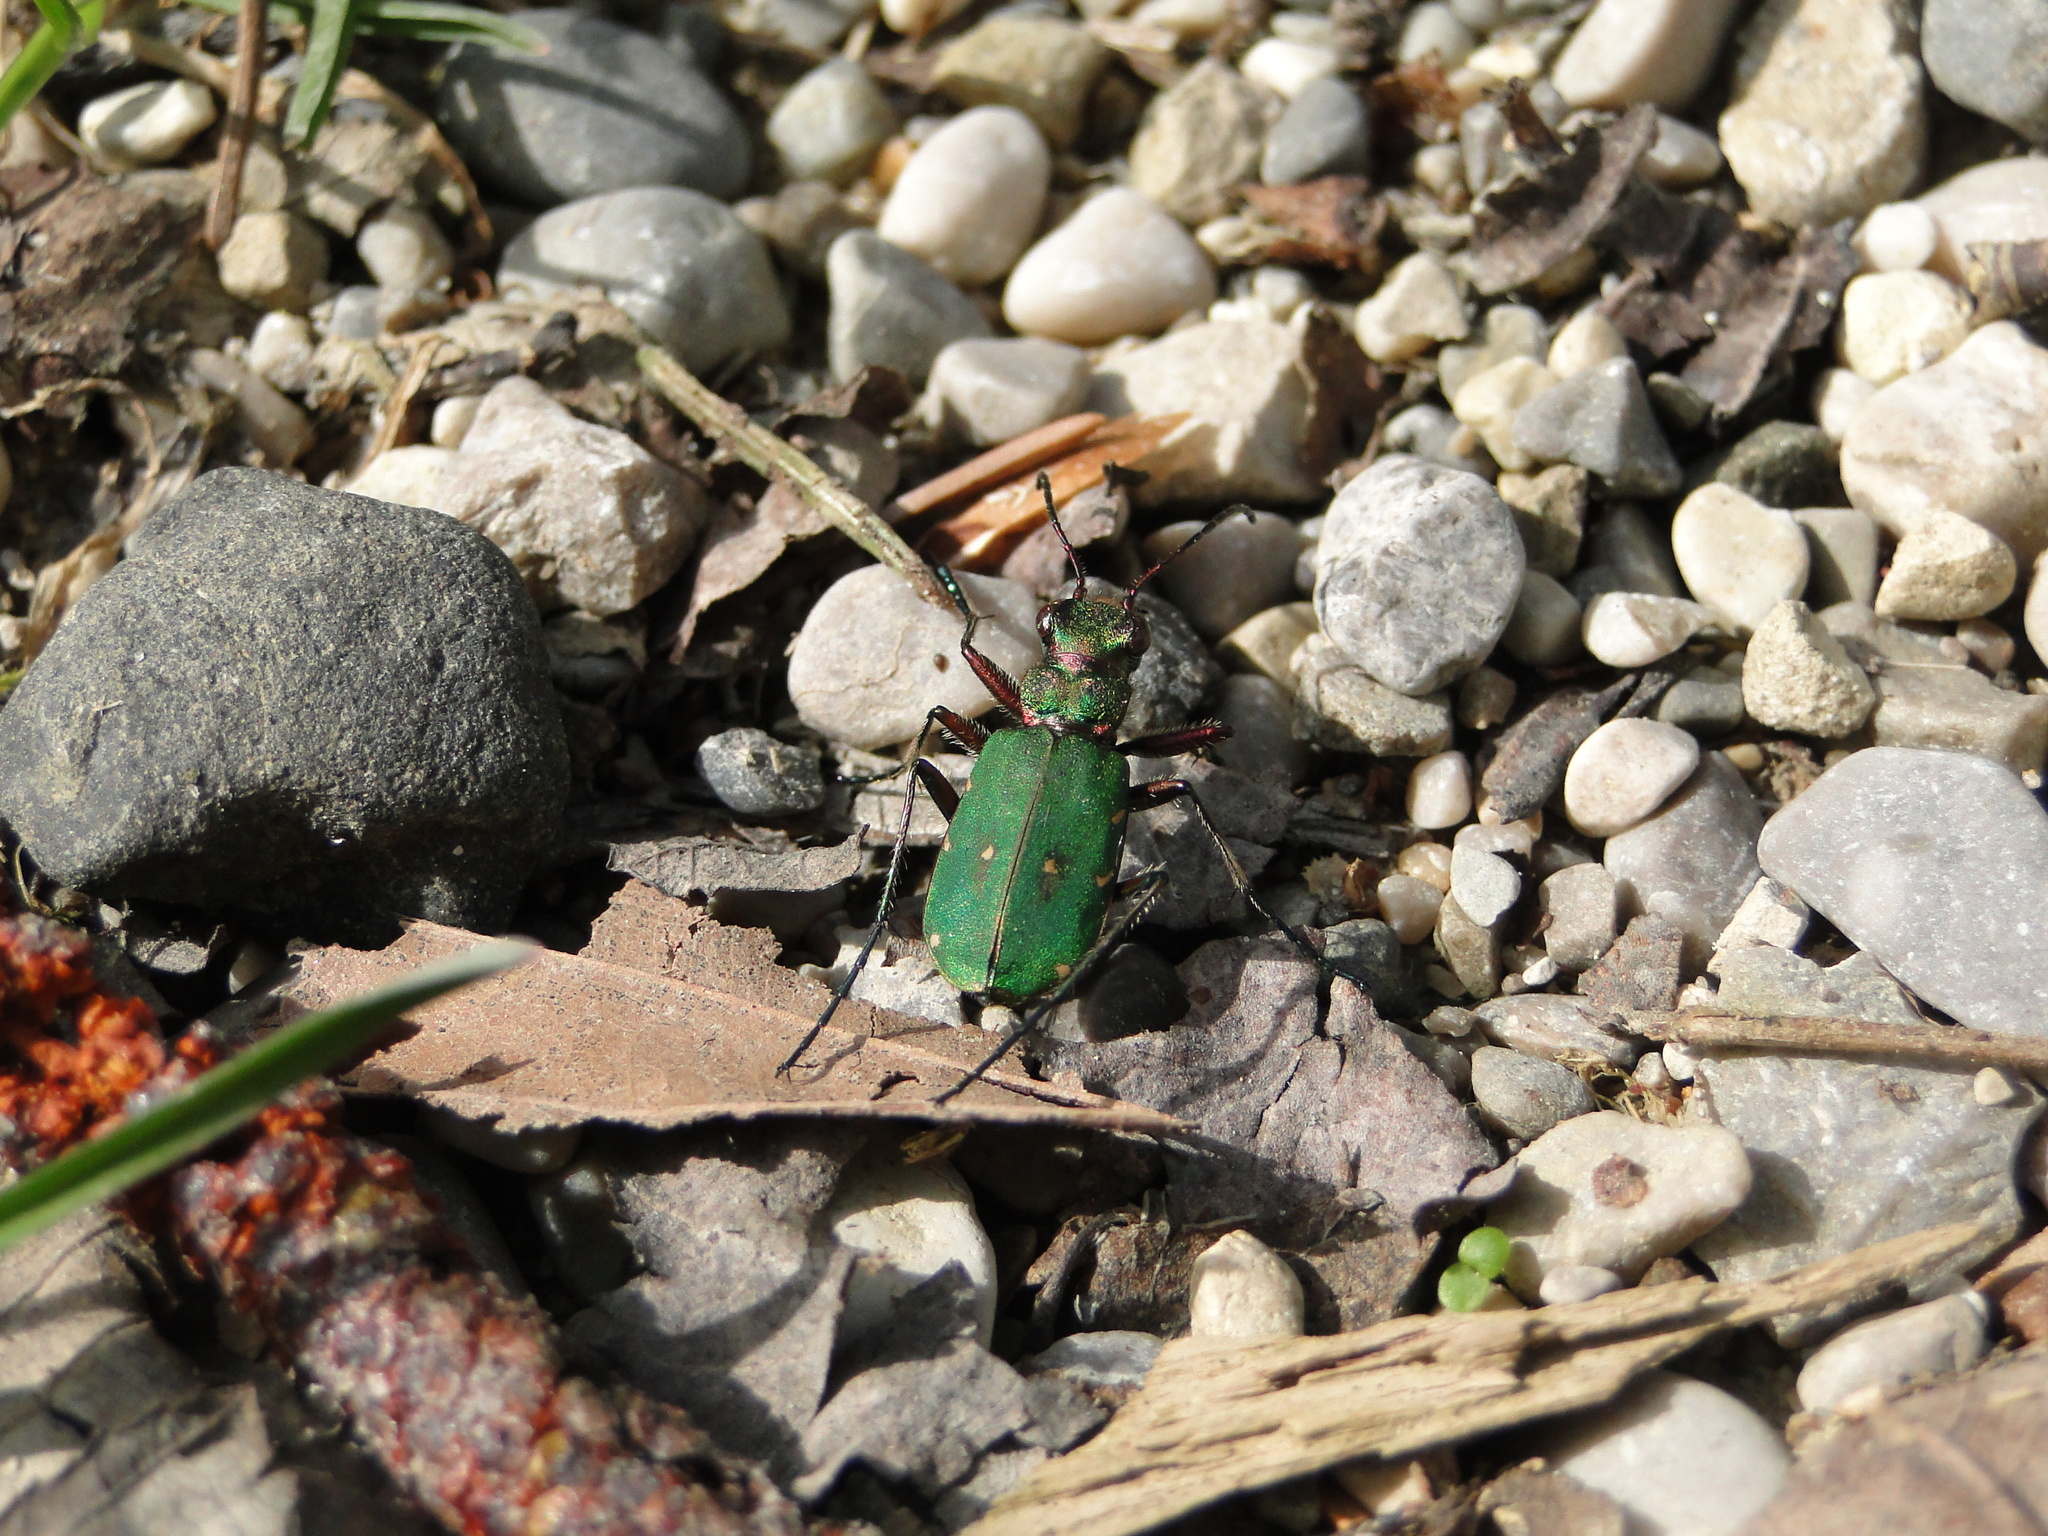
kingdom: Animalia
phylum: Arthropoda
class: Insecta
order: Coleoptera
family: Carabidae
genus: Cicindela
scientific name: Cicindela campestris
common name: Common tiger beetle
